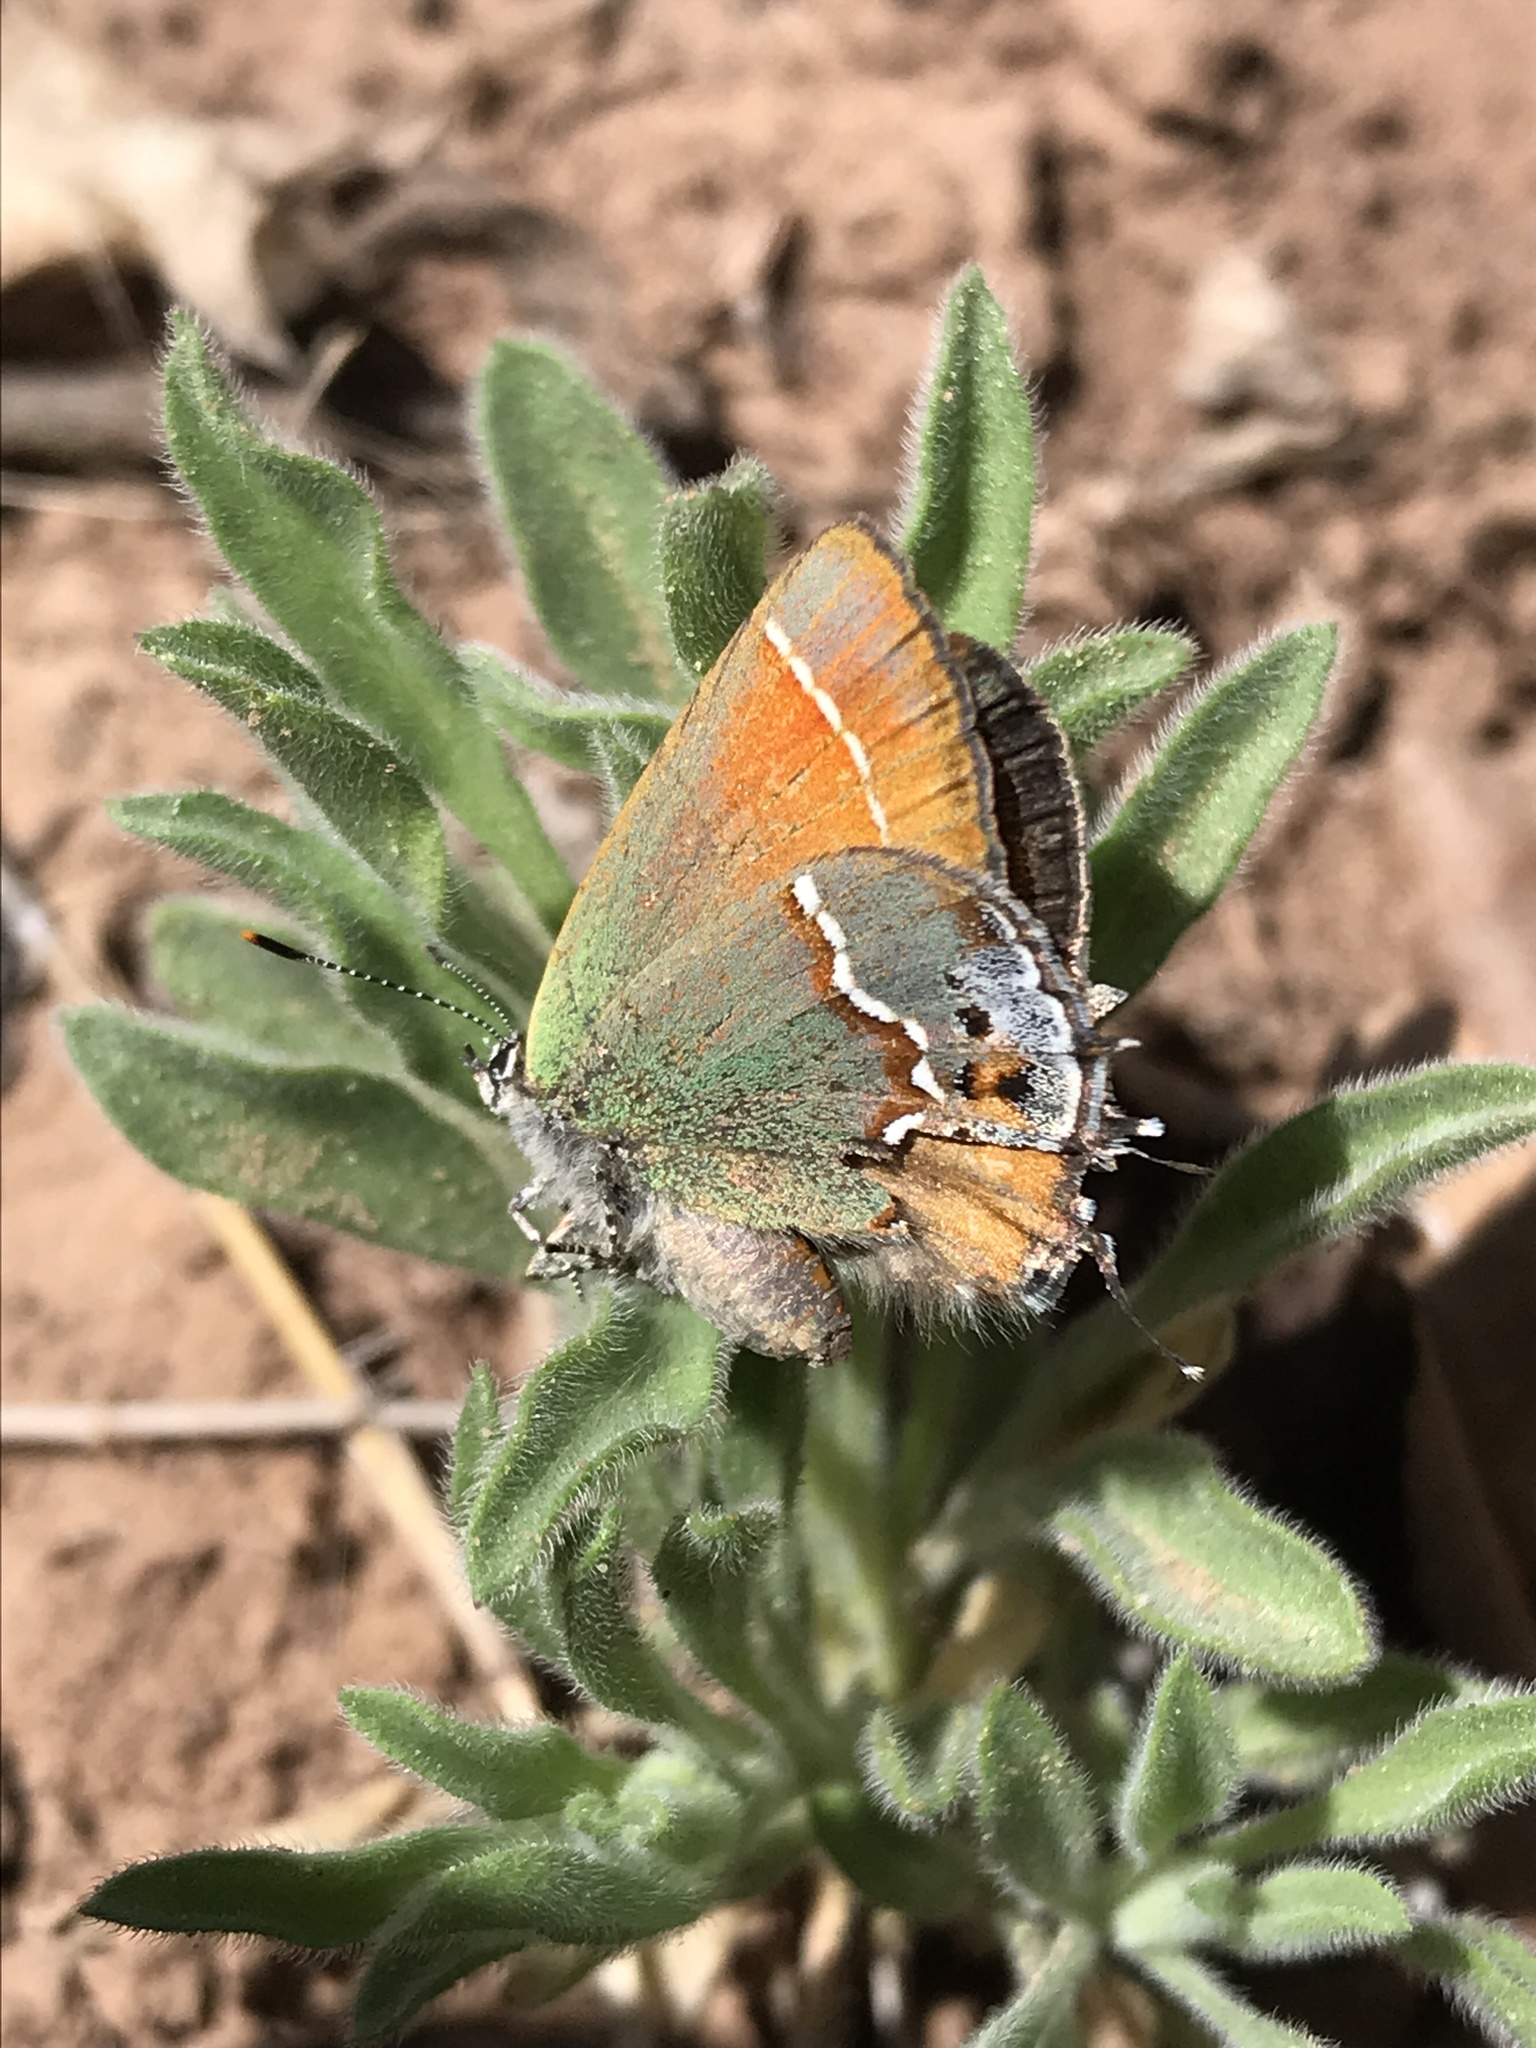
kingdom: Animalia
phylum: Arthropoda
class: Insecta
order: Lepidoptera
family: Lycaenidae
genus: Mitoura
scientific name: Mitoura siva
